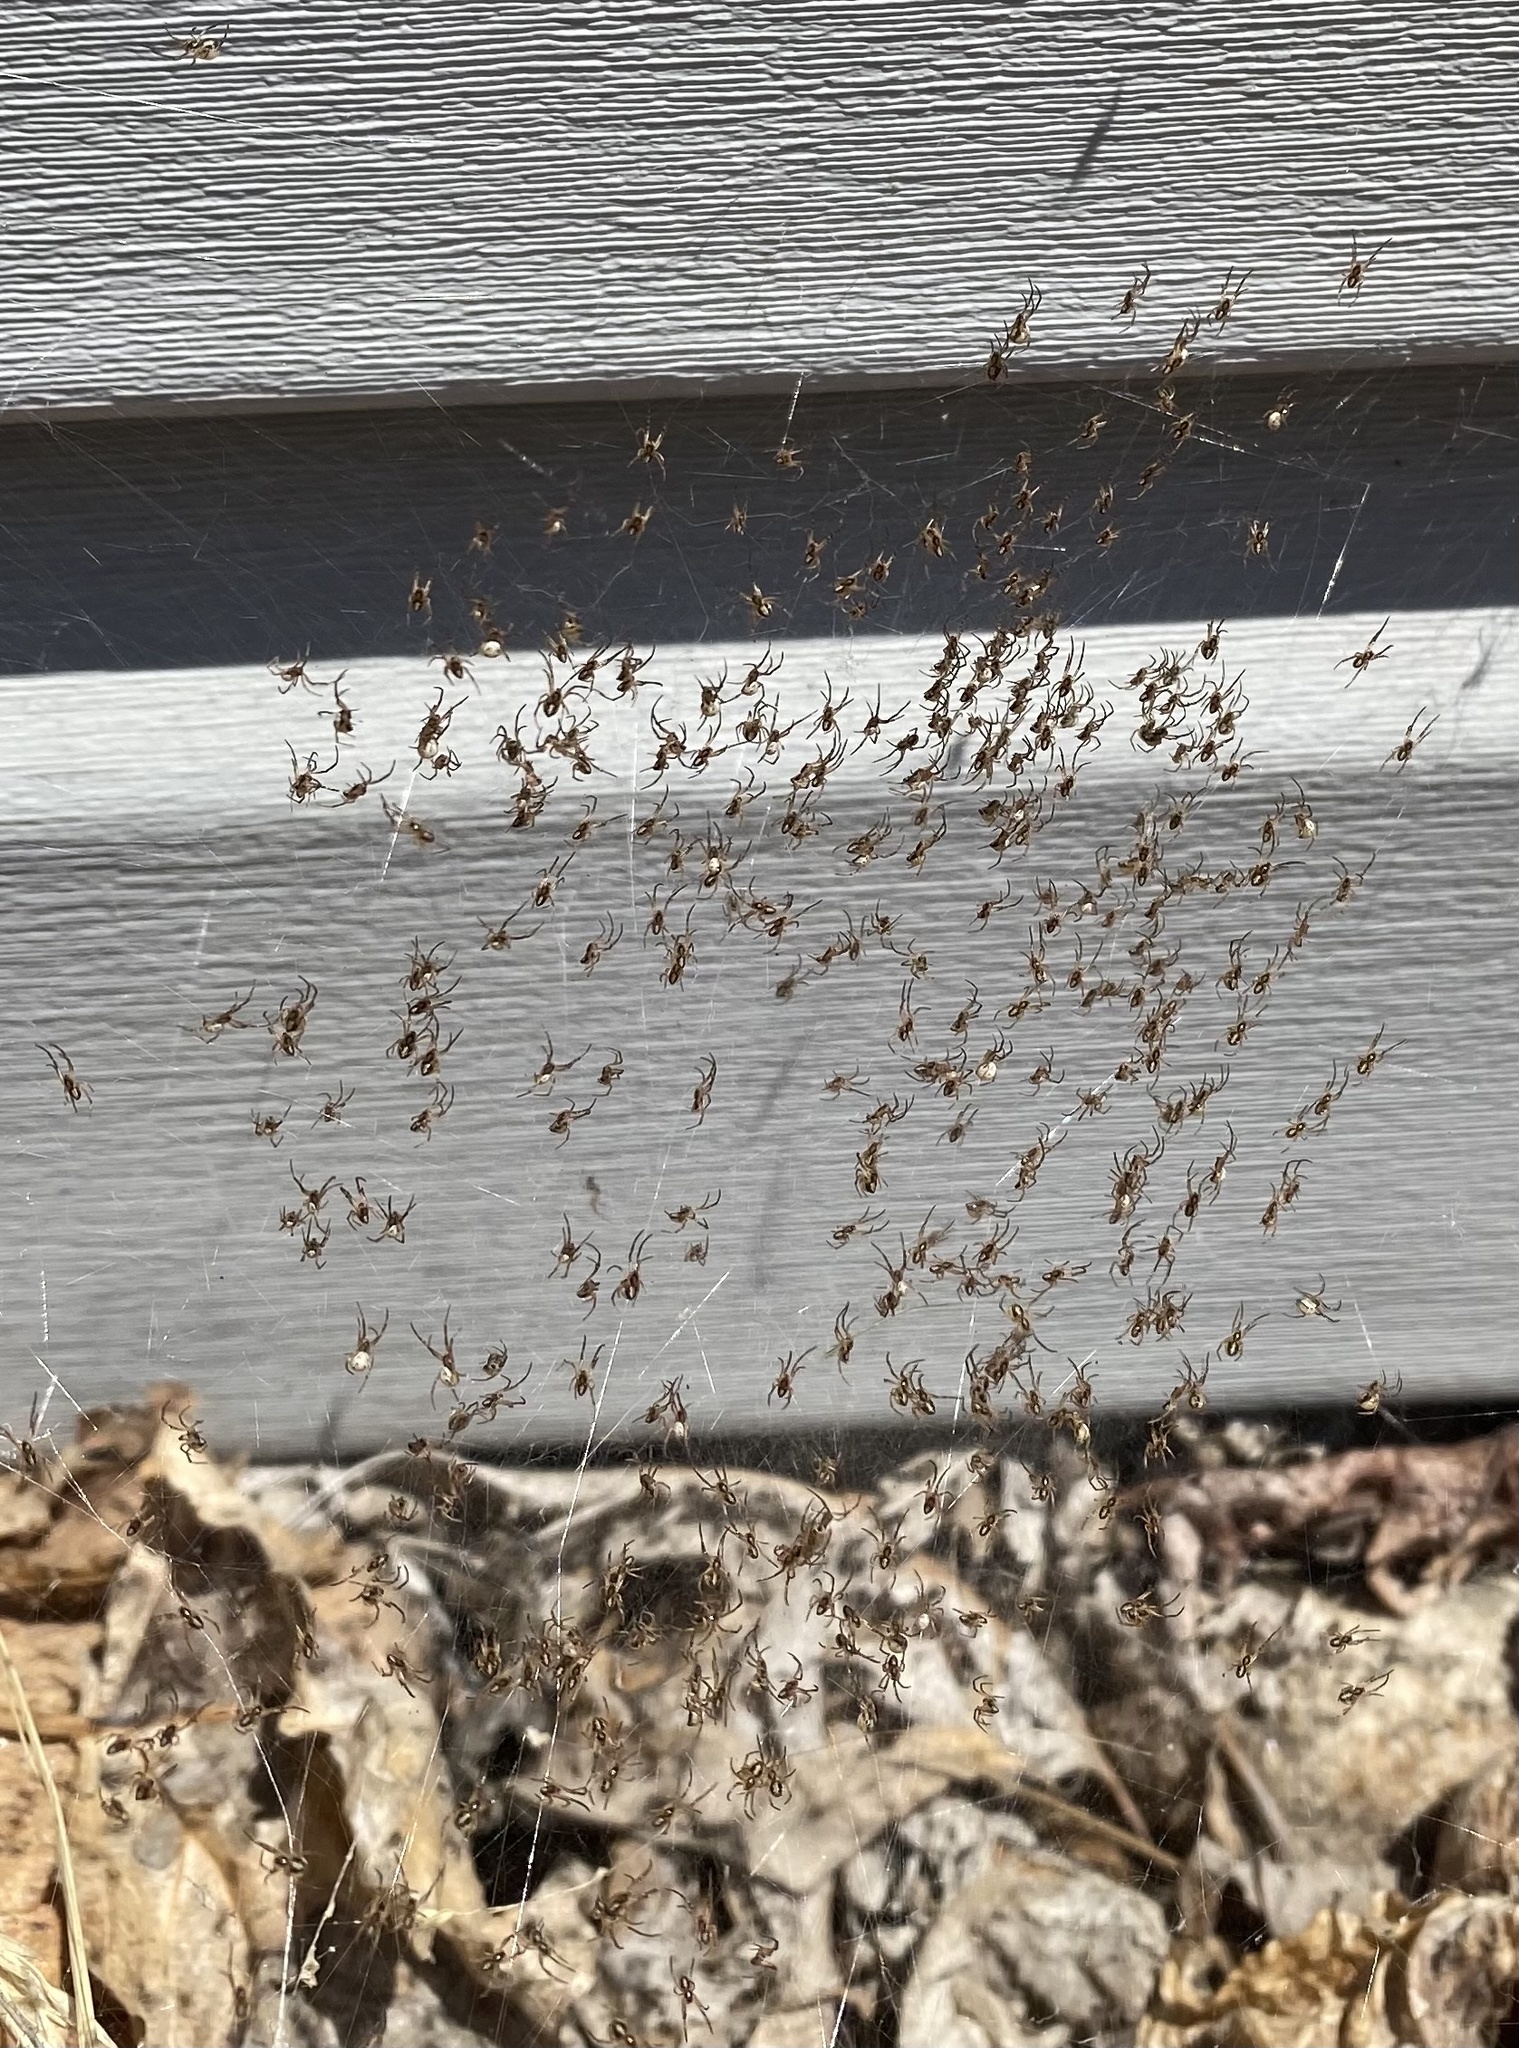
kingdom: Animalia
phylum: Arthropoda
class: Arachnida
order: Araneae
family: Theridiidae
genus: Latrodectus
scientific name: Latrodectus hesperus
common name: Western black widow
